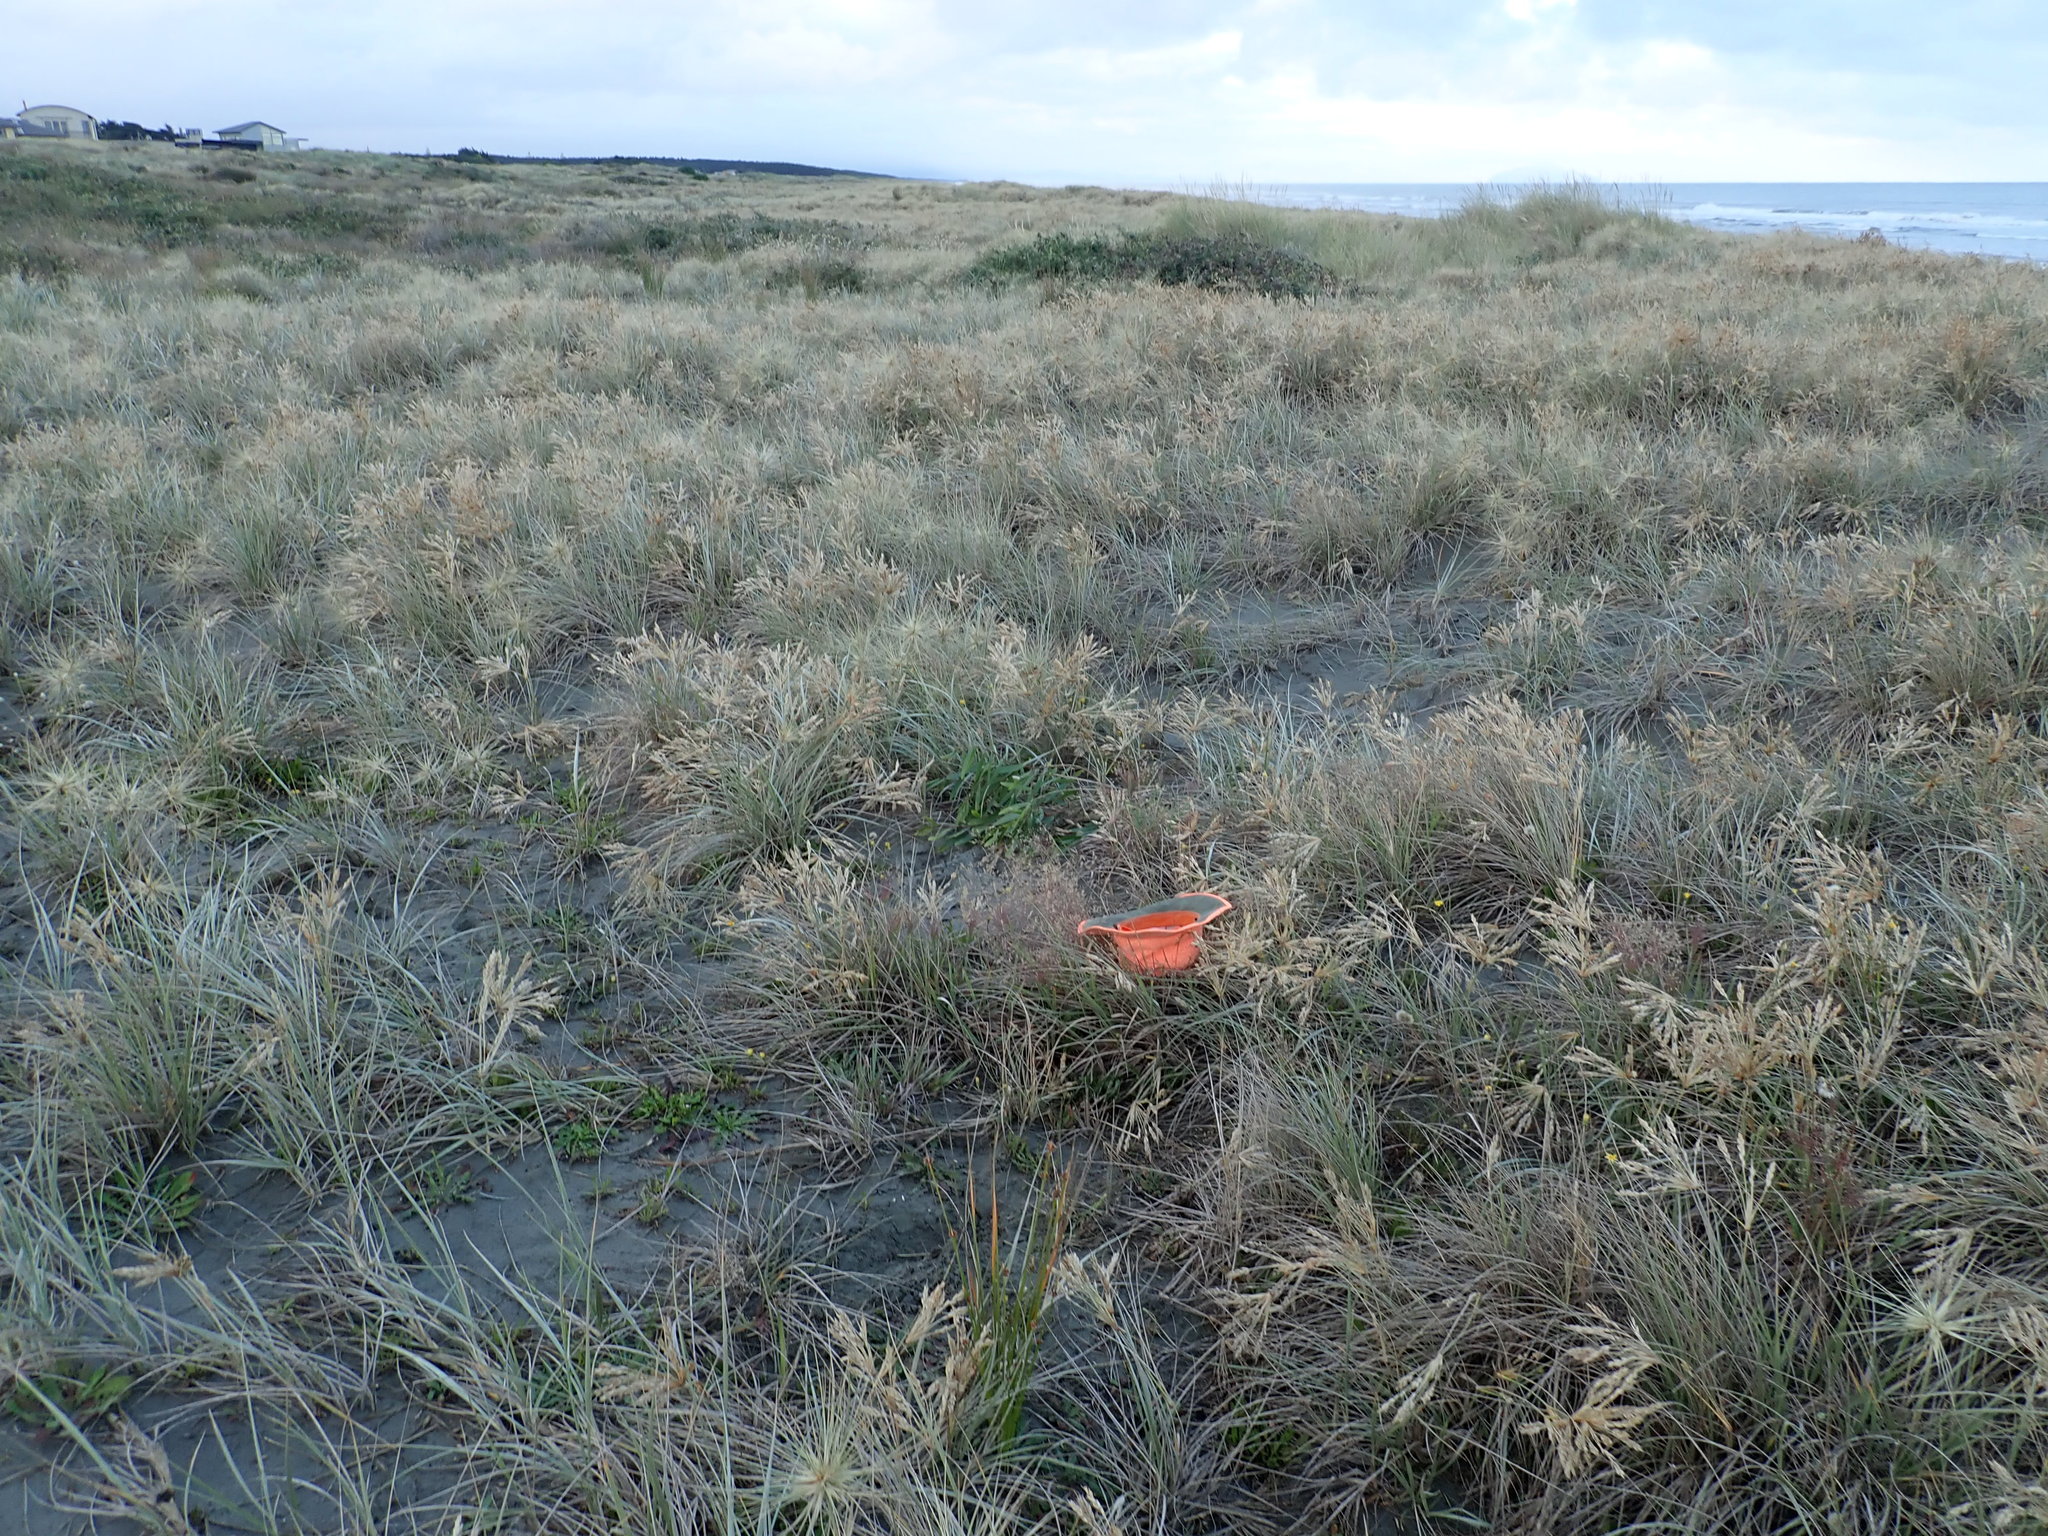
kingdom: Plantae
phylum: Tracheophyta
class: Liliopsida
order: Poales
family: Poaceae
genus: Lachnagrostis
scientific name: Lachnagrostis billardierei
